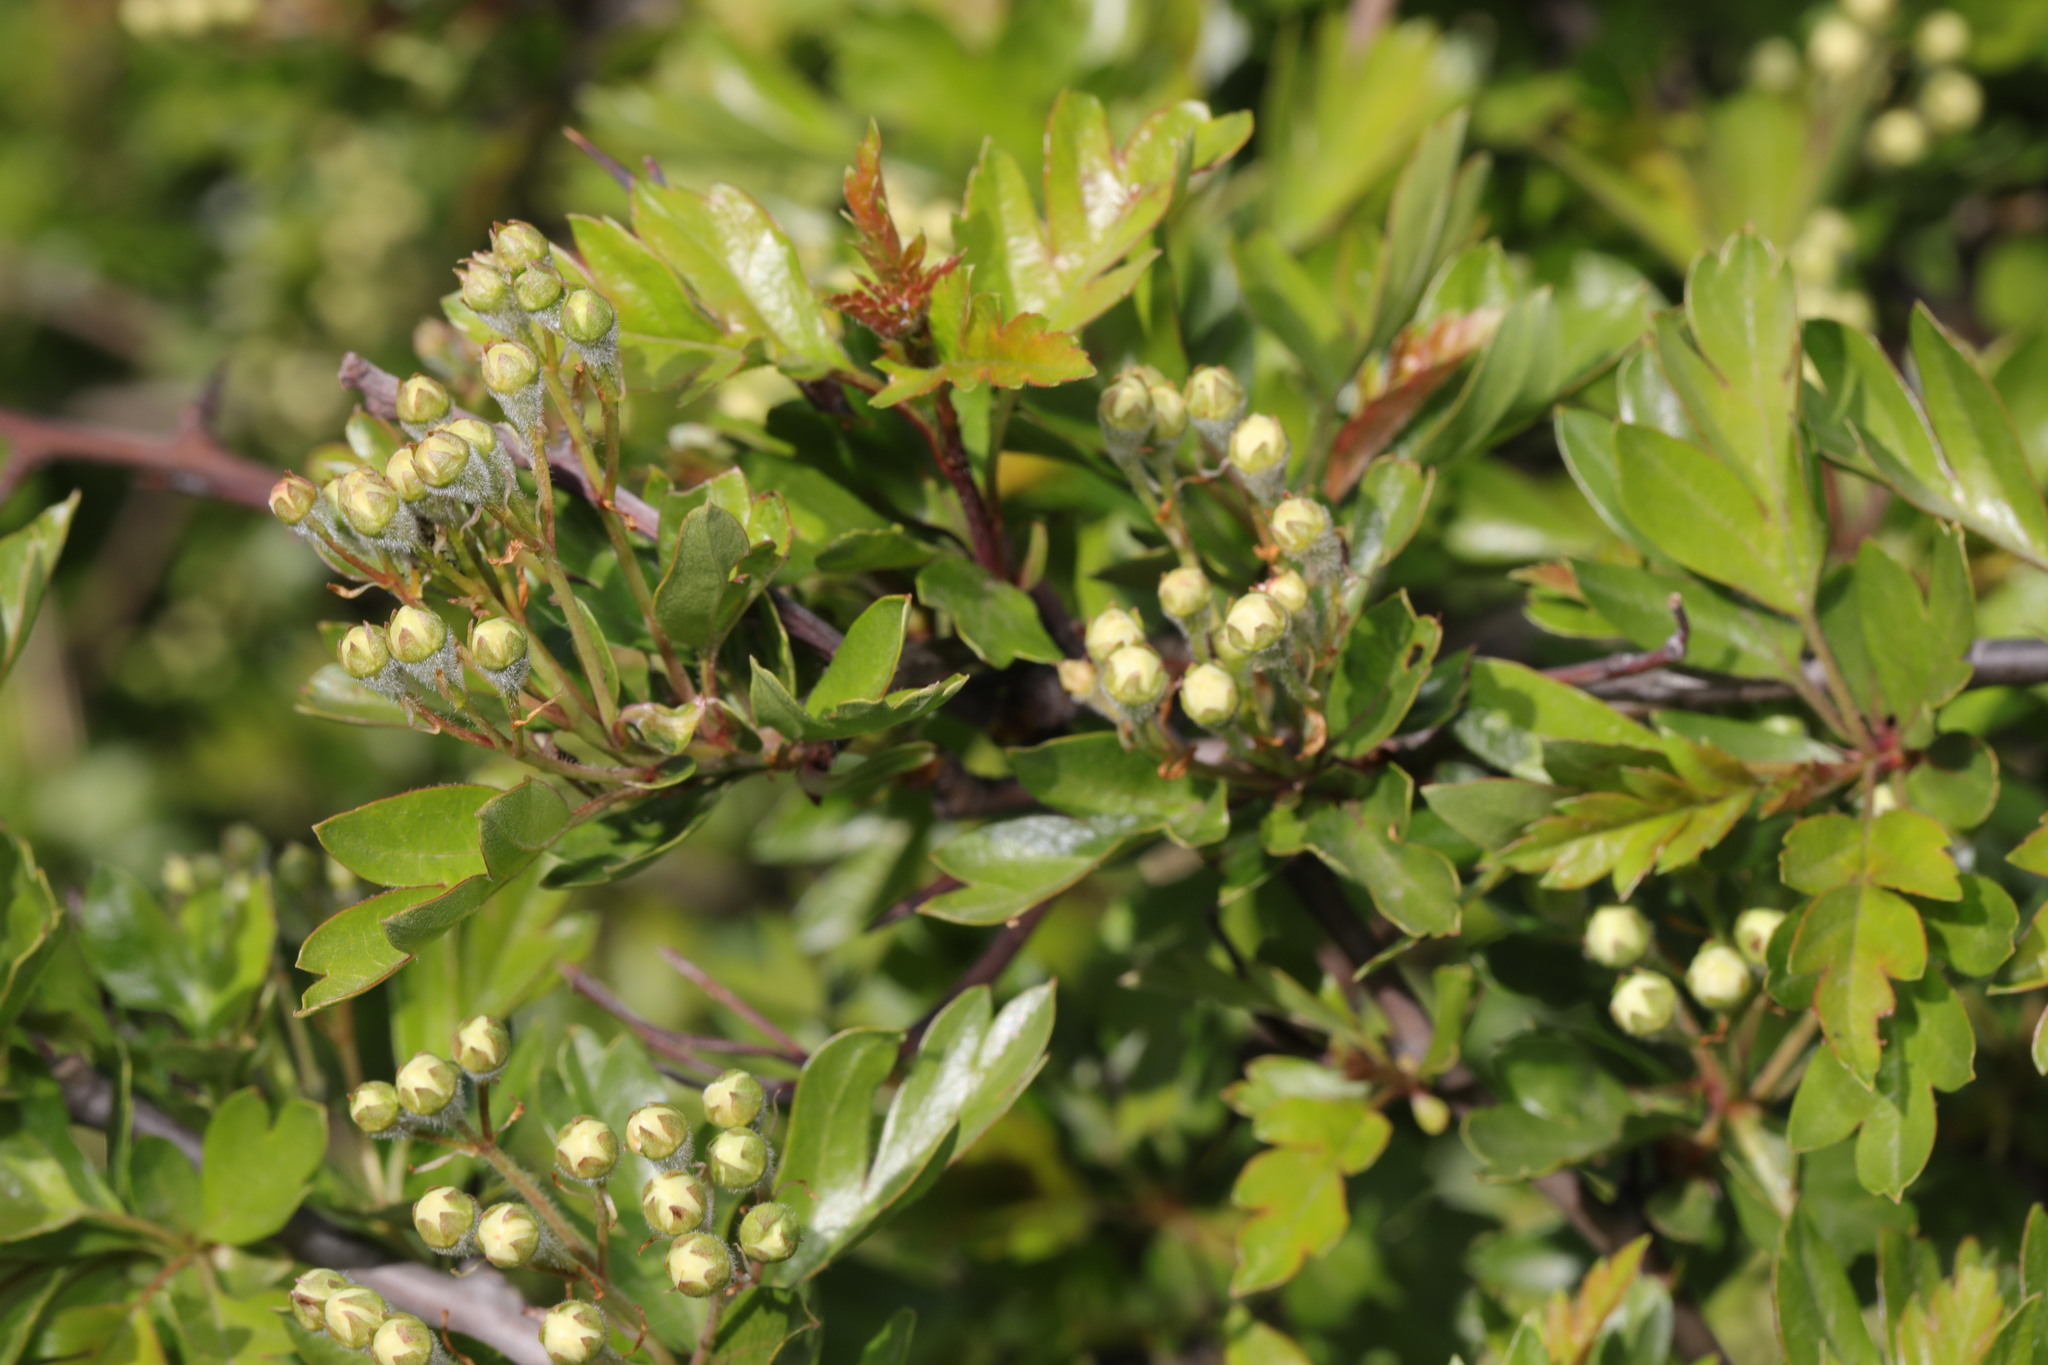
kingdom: Plantae
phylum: Tracheophyta
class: Magnoliopsida
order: Rosales
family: Rosaceae
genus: Crataegus
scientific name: Crataegus monogyna
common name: Hawthorn
